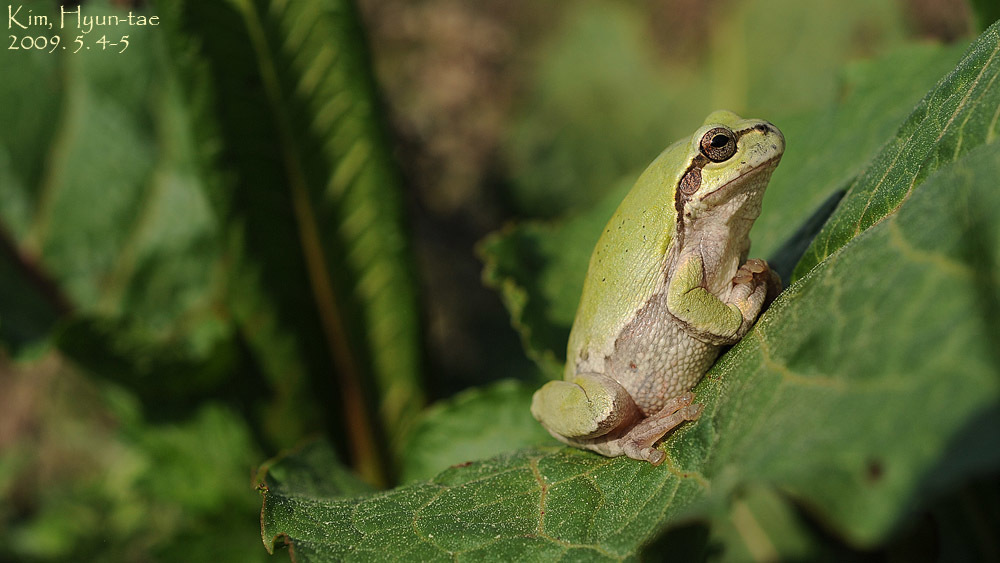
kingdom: Animalia
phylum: Chordata
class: Amphibia
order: Anura
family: Hylidae
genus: Dryophytes
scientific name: Dryophytes japonicus
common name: Japanese treefrog
